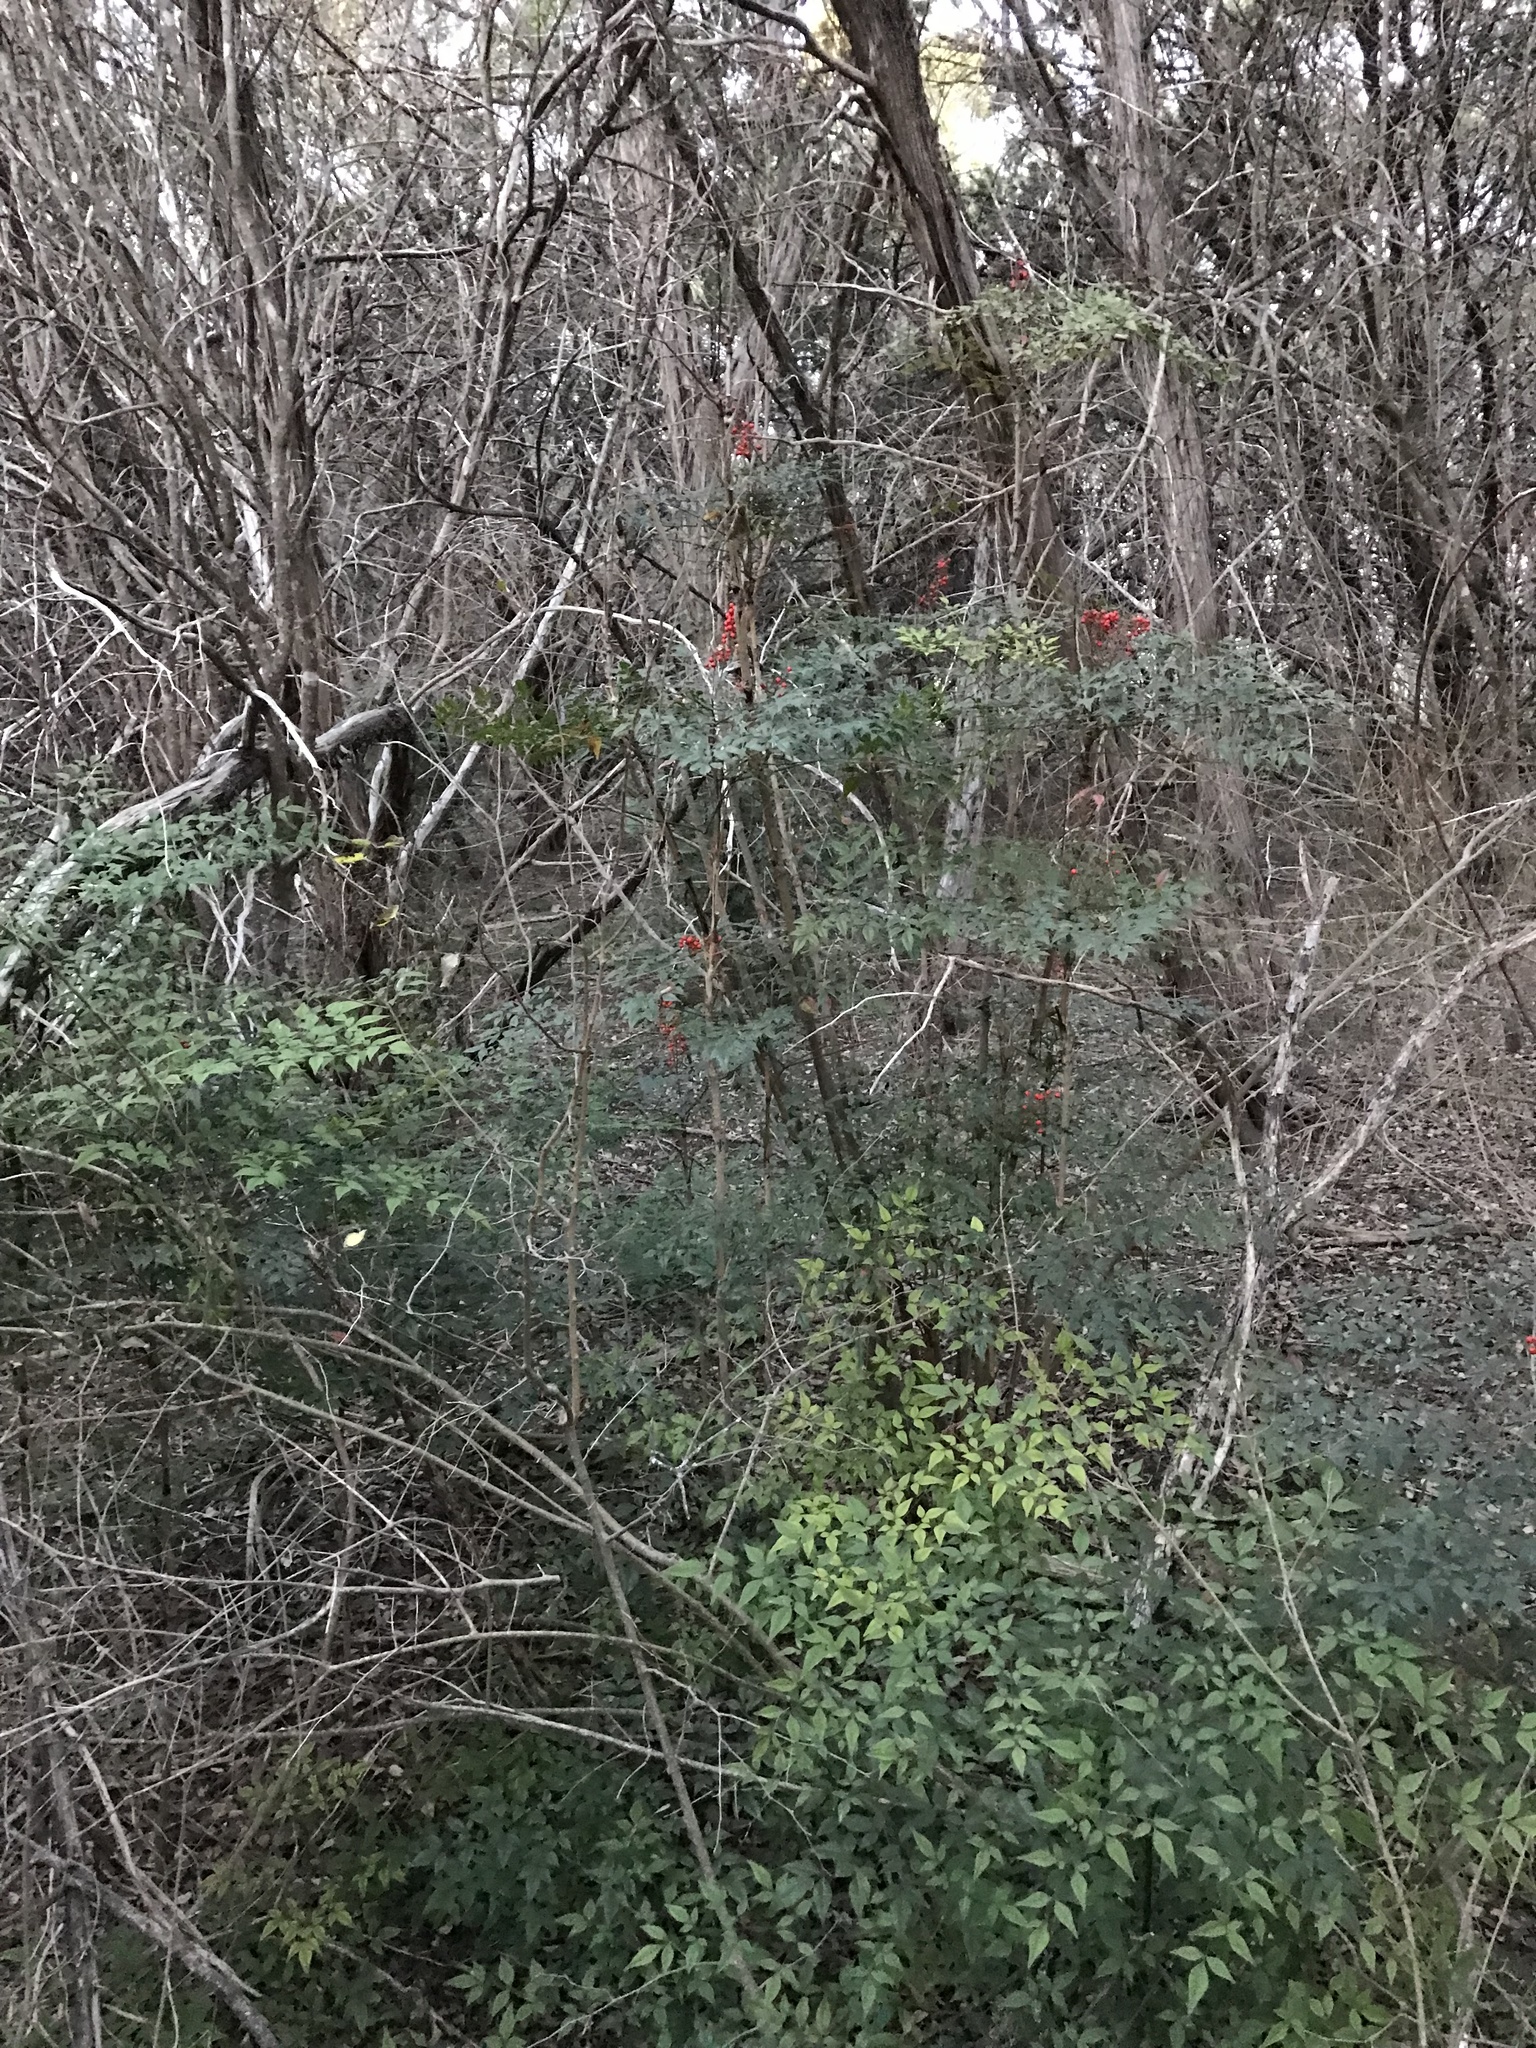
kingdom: Plantae
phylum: Tracheophyta
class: Magnoliopsida
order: Ranunculales
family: Berberidaceae
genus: Nandina
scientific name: Nandina domestica
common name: Sacred bamboo
